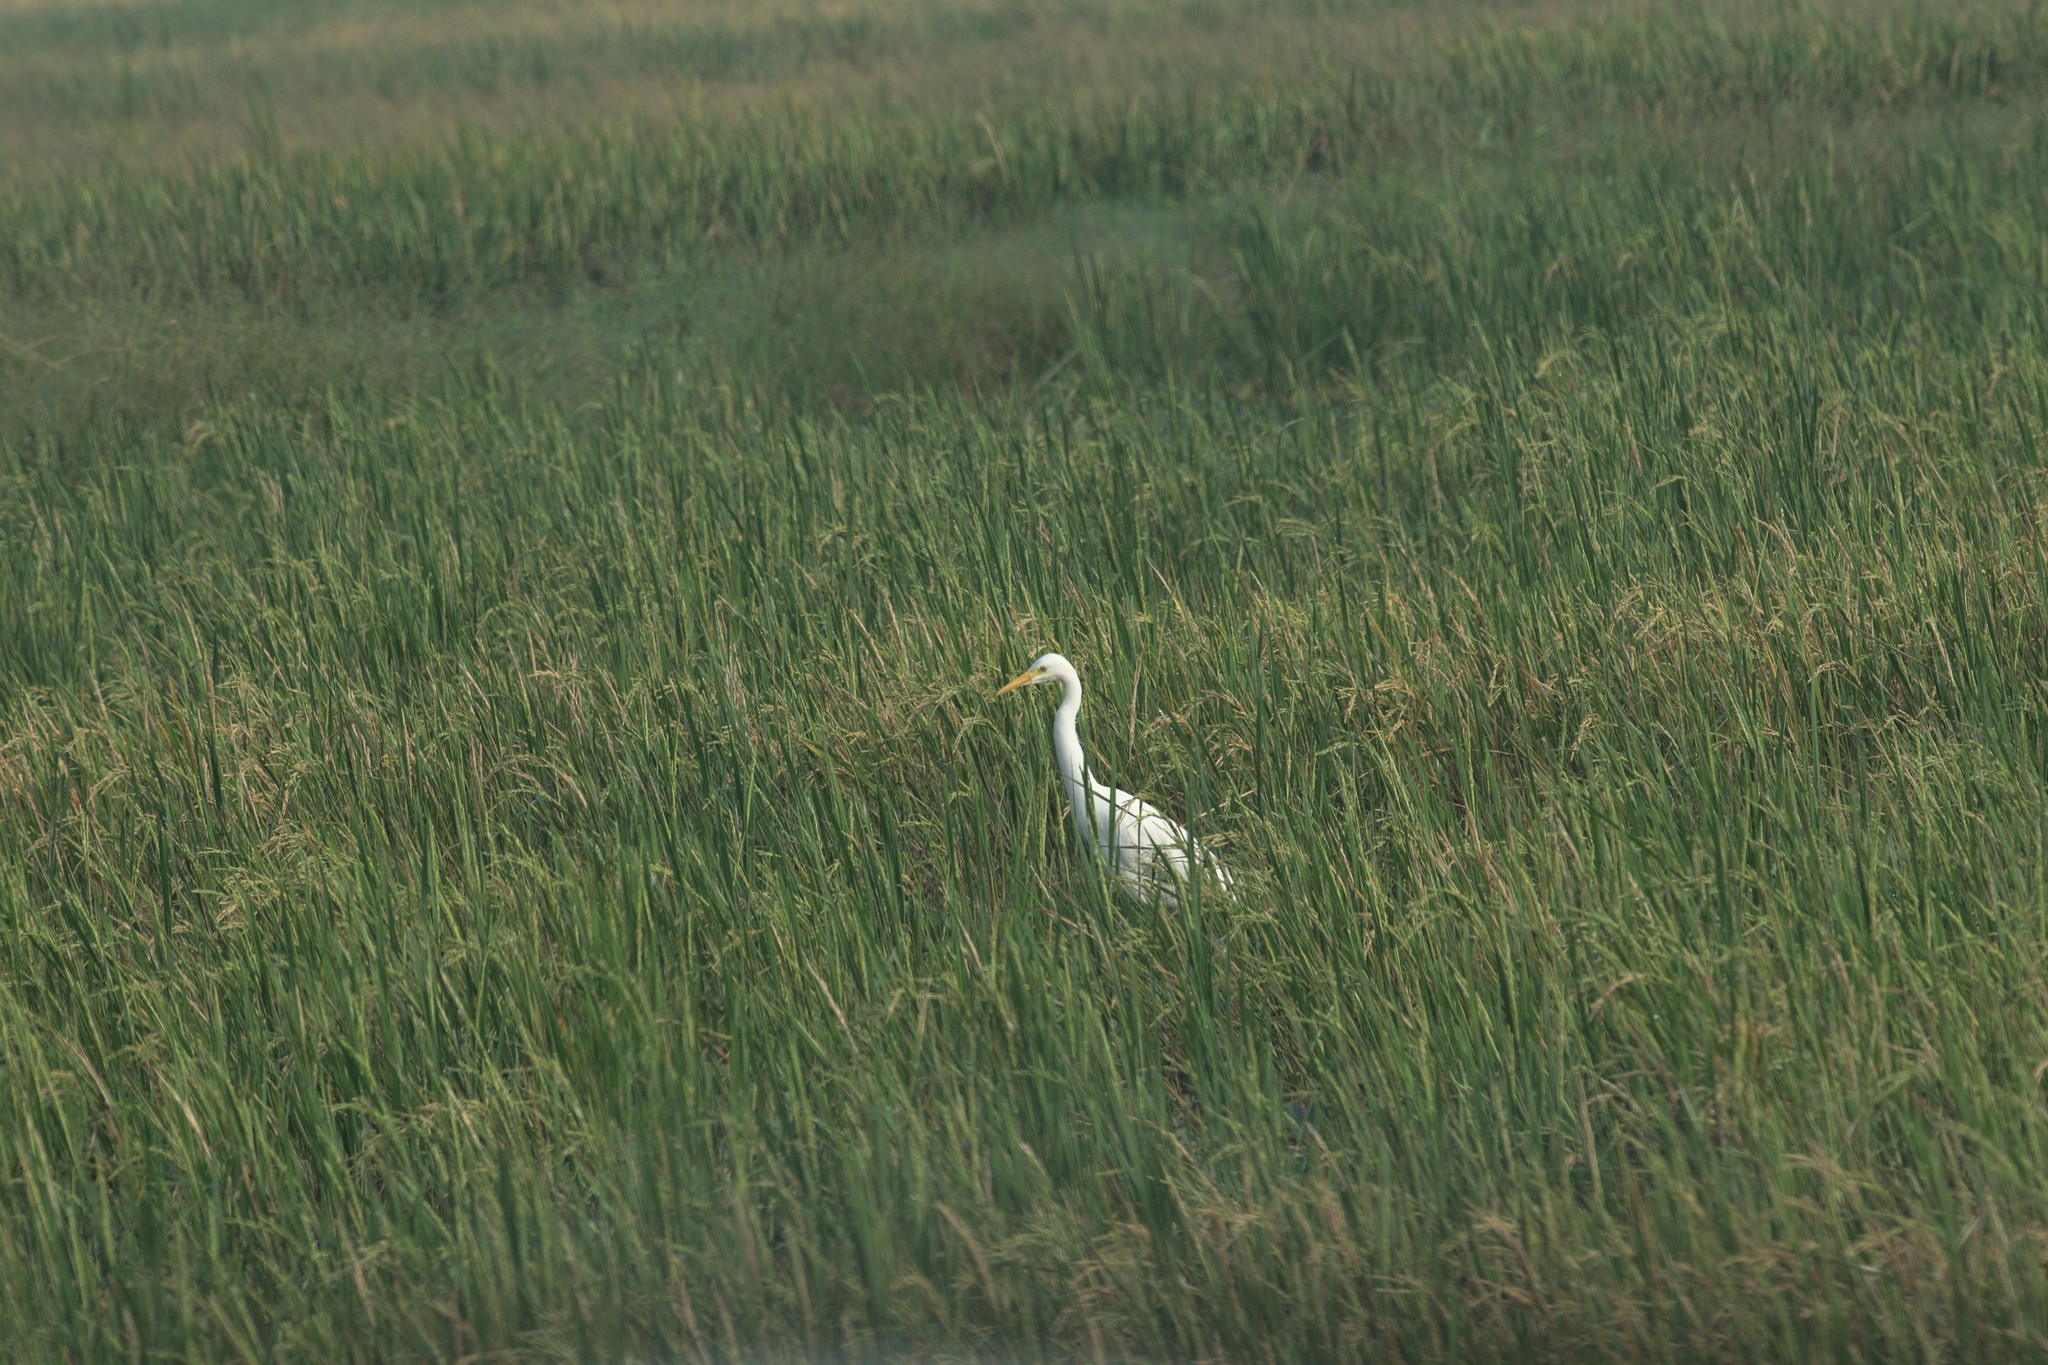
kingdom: Animalia
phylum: Chordata
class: Aves
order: Pelecaniformes
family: Ardeidae
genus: Egretta
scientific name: Egretta intermedia
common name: Intermediate egret
